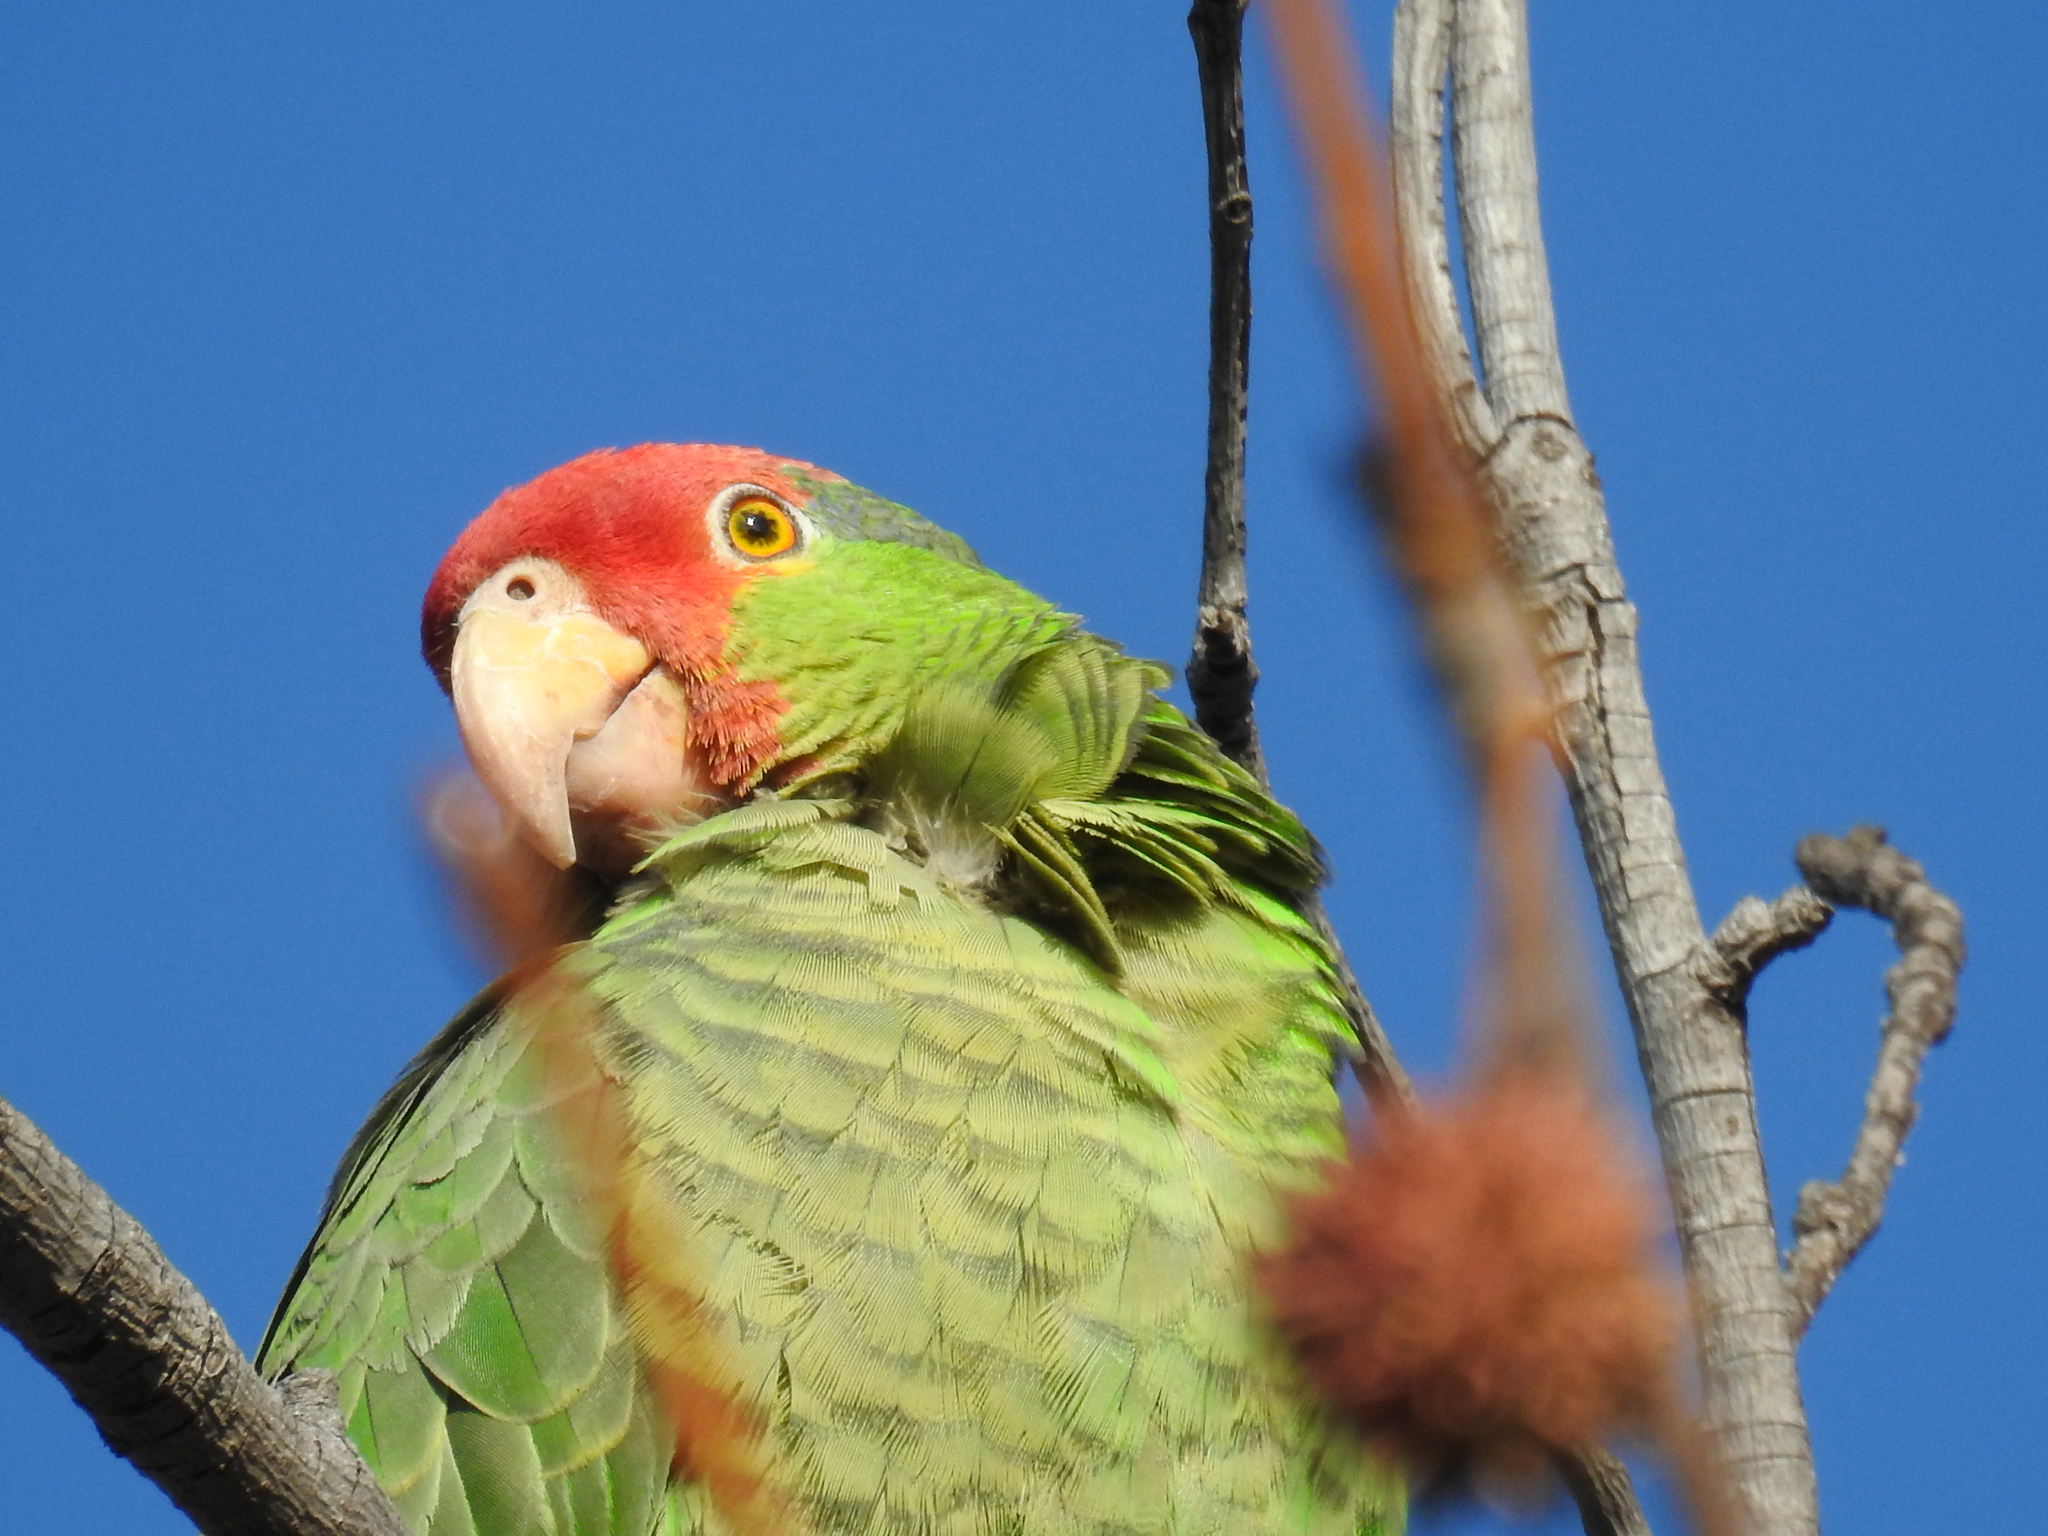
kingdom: Animalia
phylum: Chordata
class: Aves
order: Psittaciformes
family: Psittacidae
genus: Amazona
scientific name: Amazona viridigenalis
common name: Red-crowned amazon
